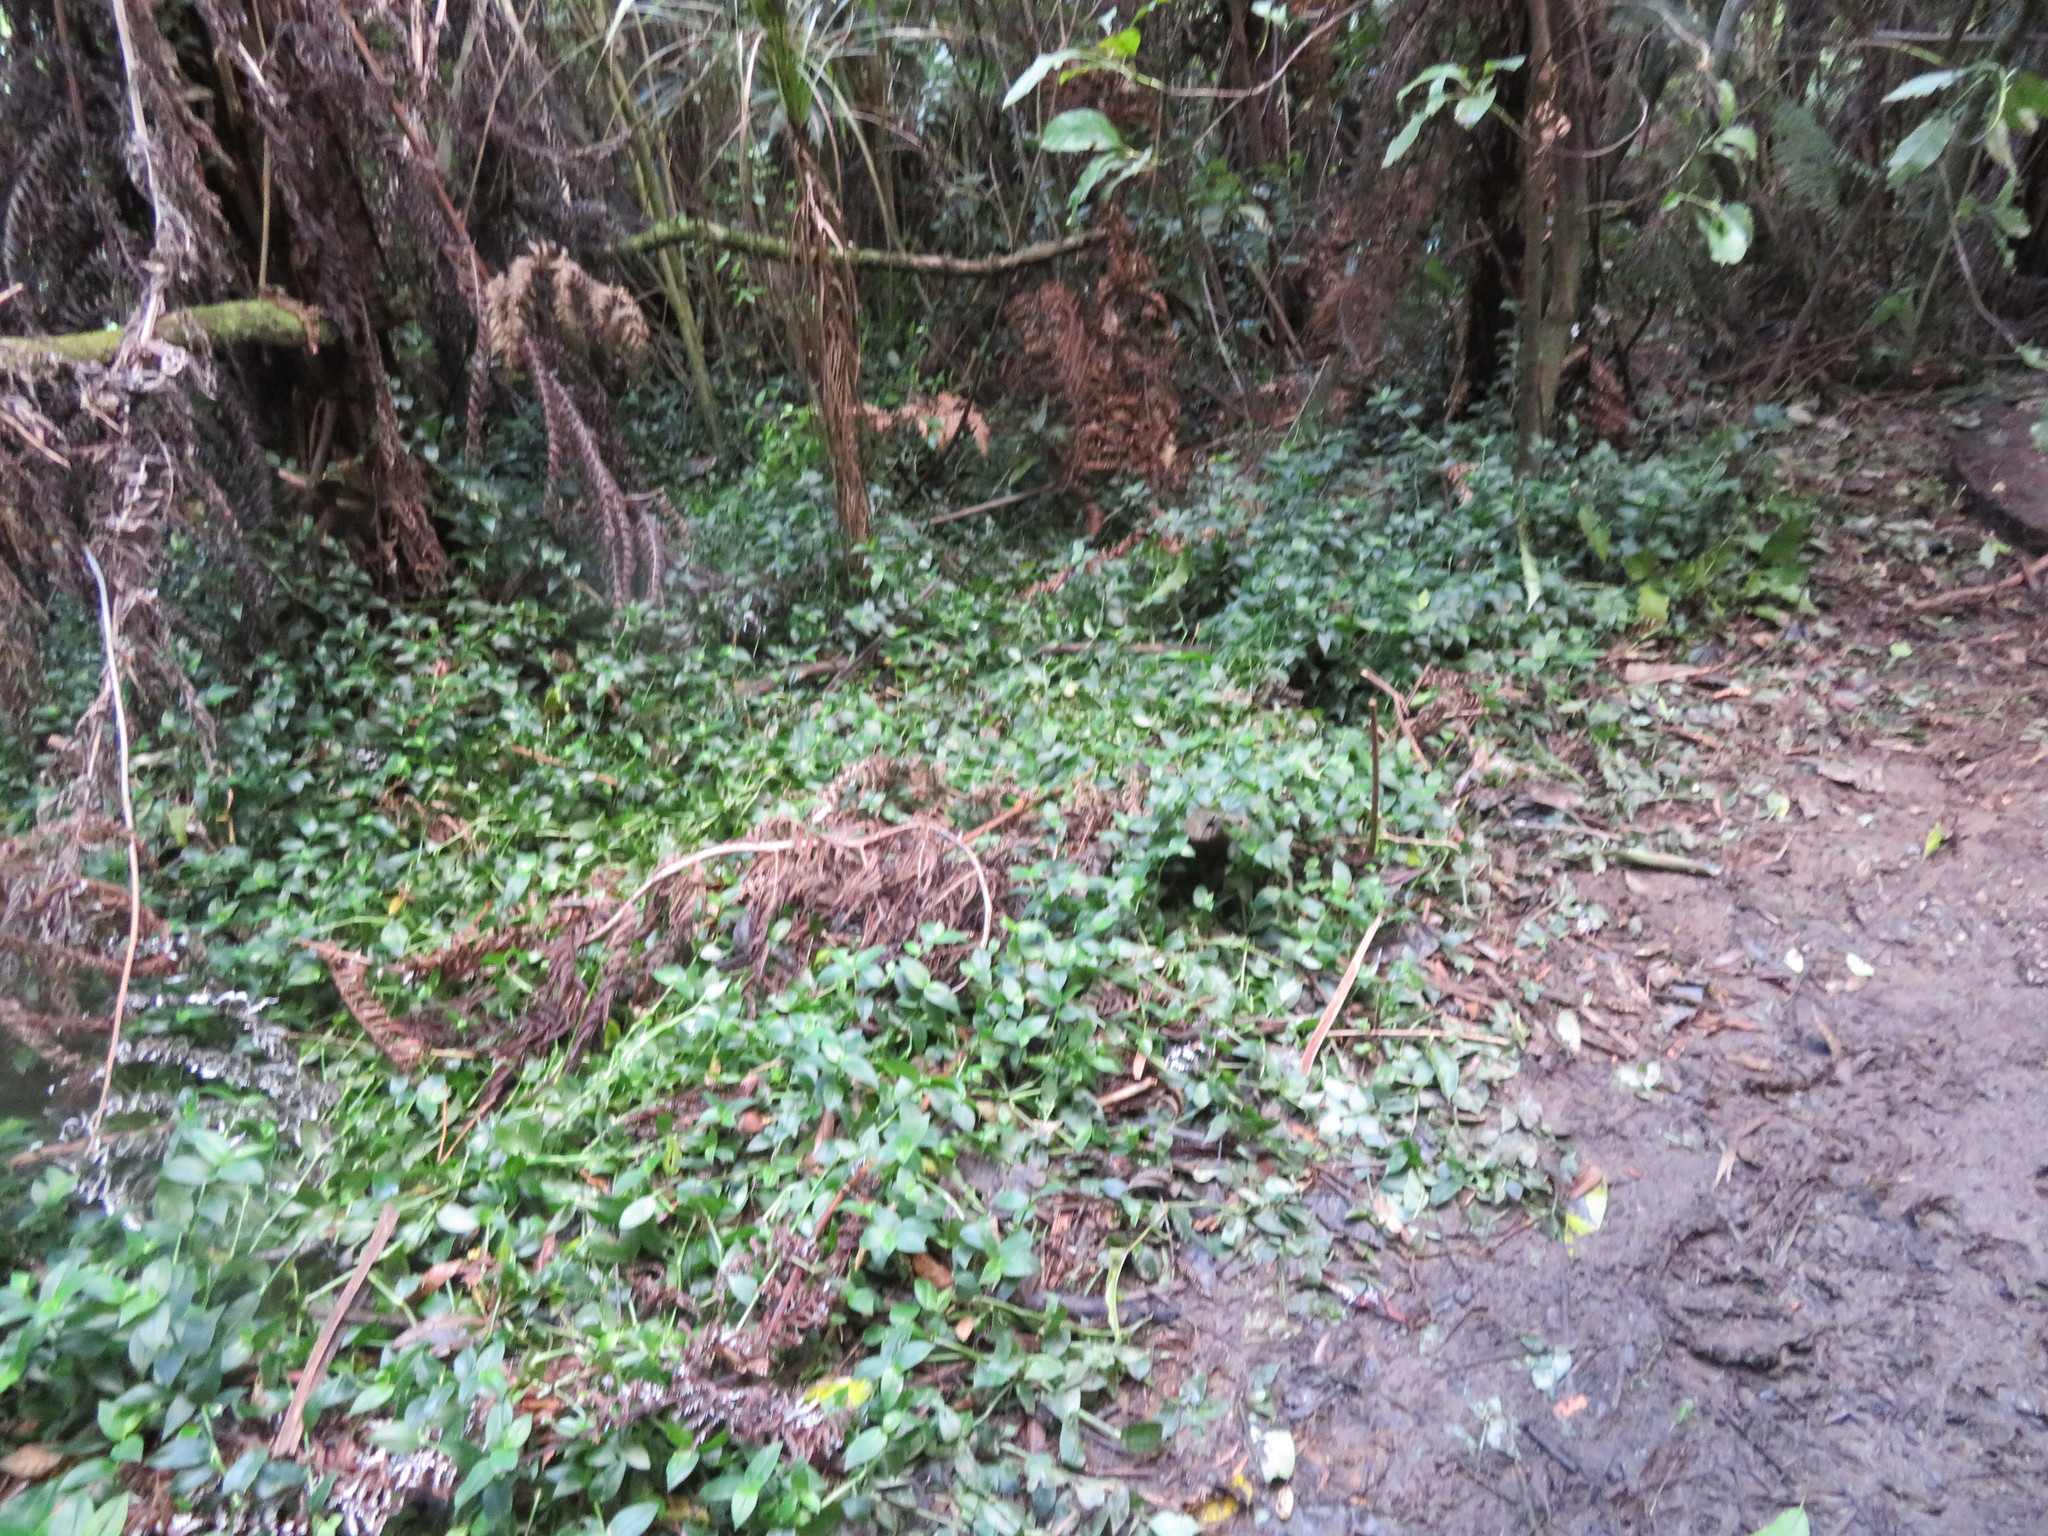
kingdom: Plantae
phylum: Tracheophyta
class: Liliopsida
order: Commelinales
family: Commelinaceae
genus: Tradescantia
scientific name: Tradescantia fluminensis
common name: Wandering-jew
